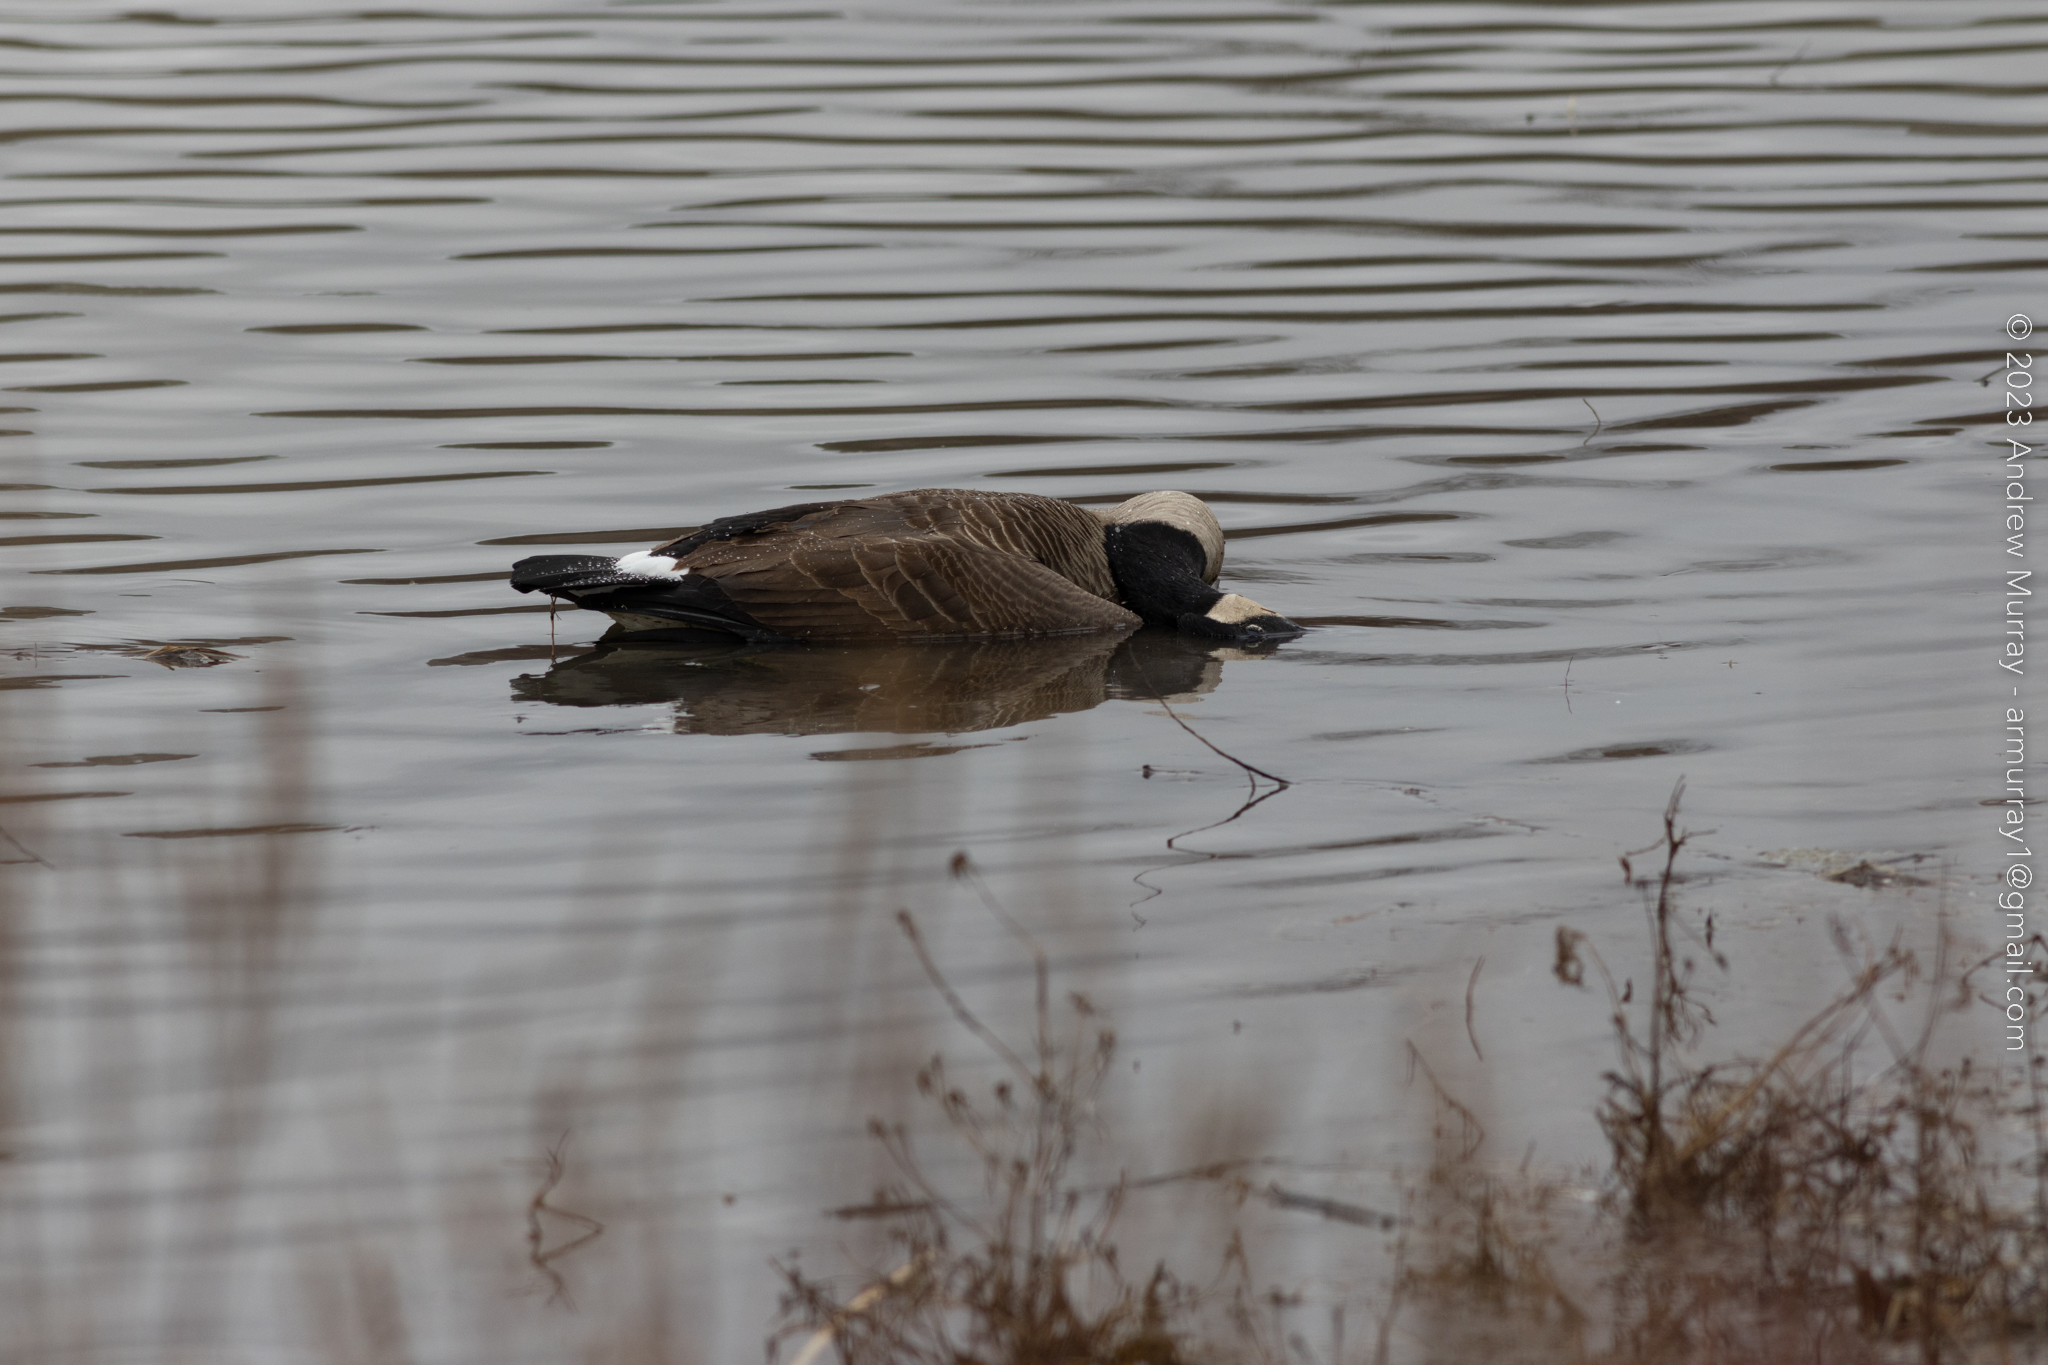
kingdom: Animalia
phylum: Chordata
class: Aves
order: Anseriformes
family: Anatidae
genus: Branta
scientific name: Branta canadensis
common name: Canada goose
